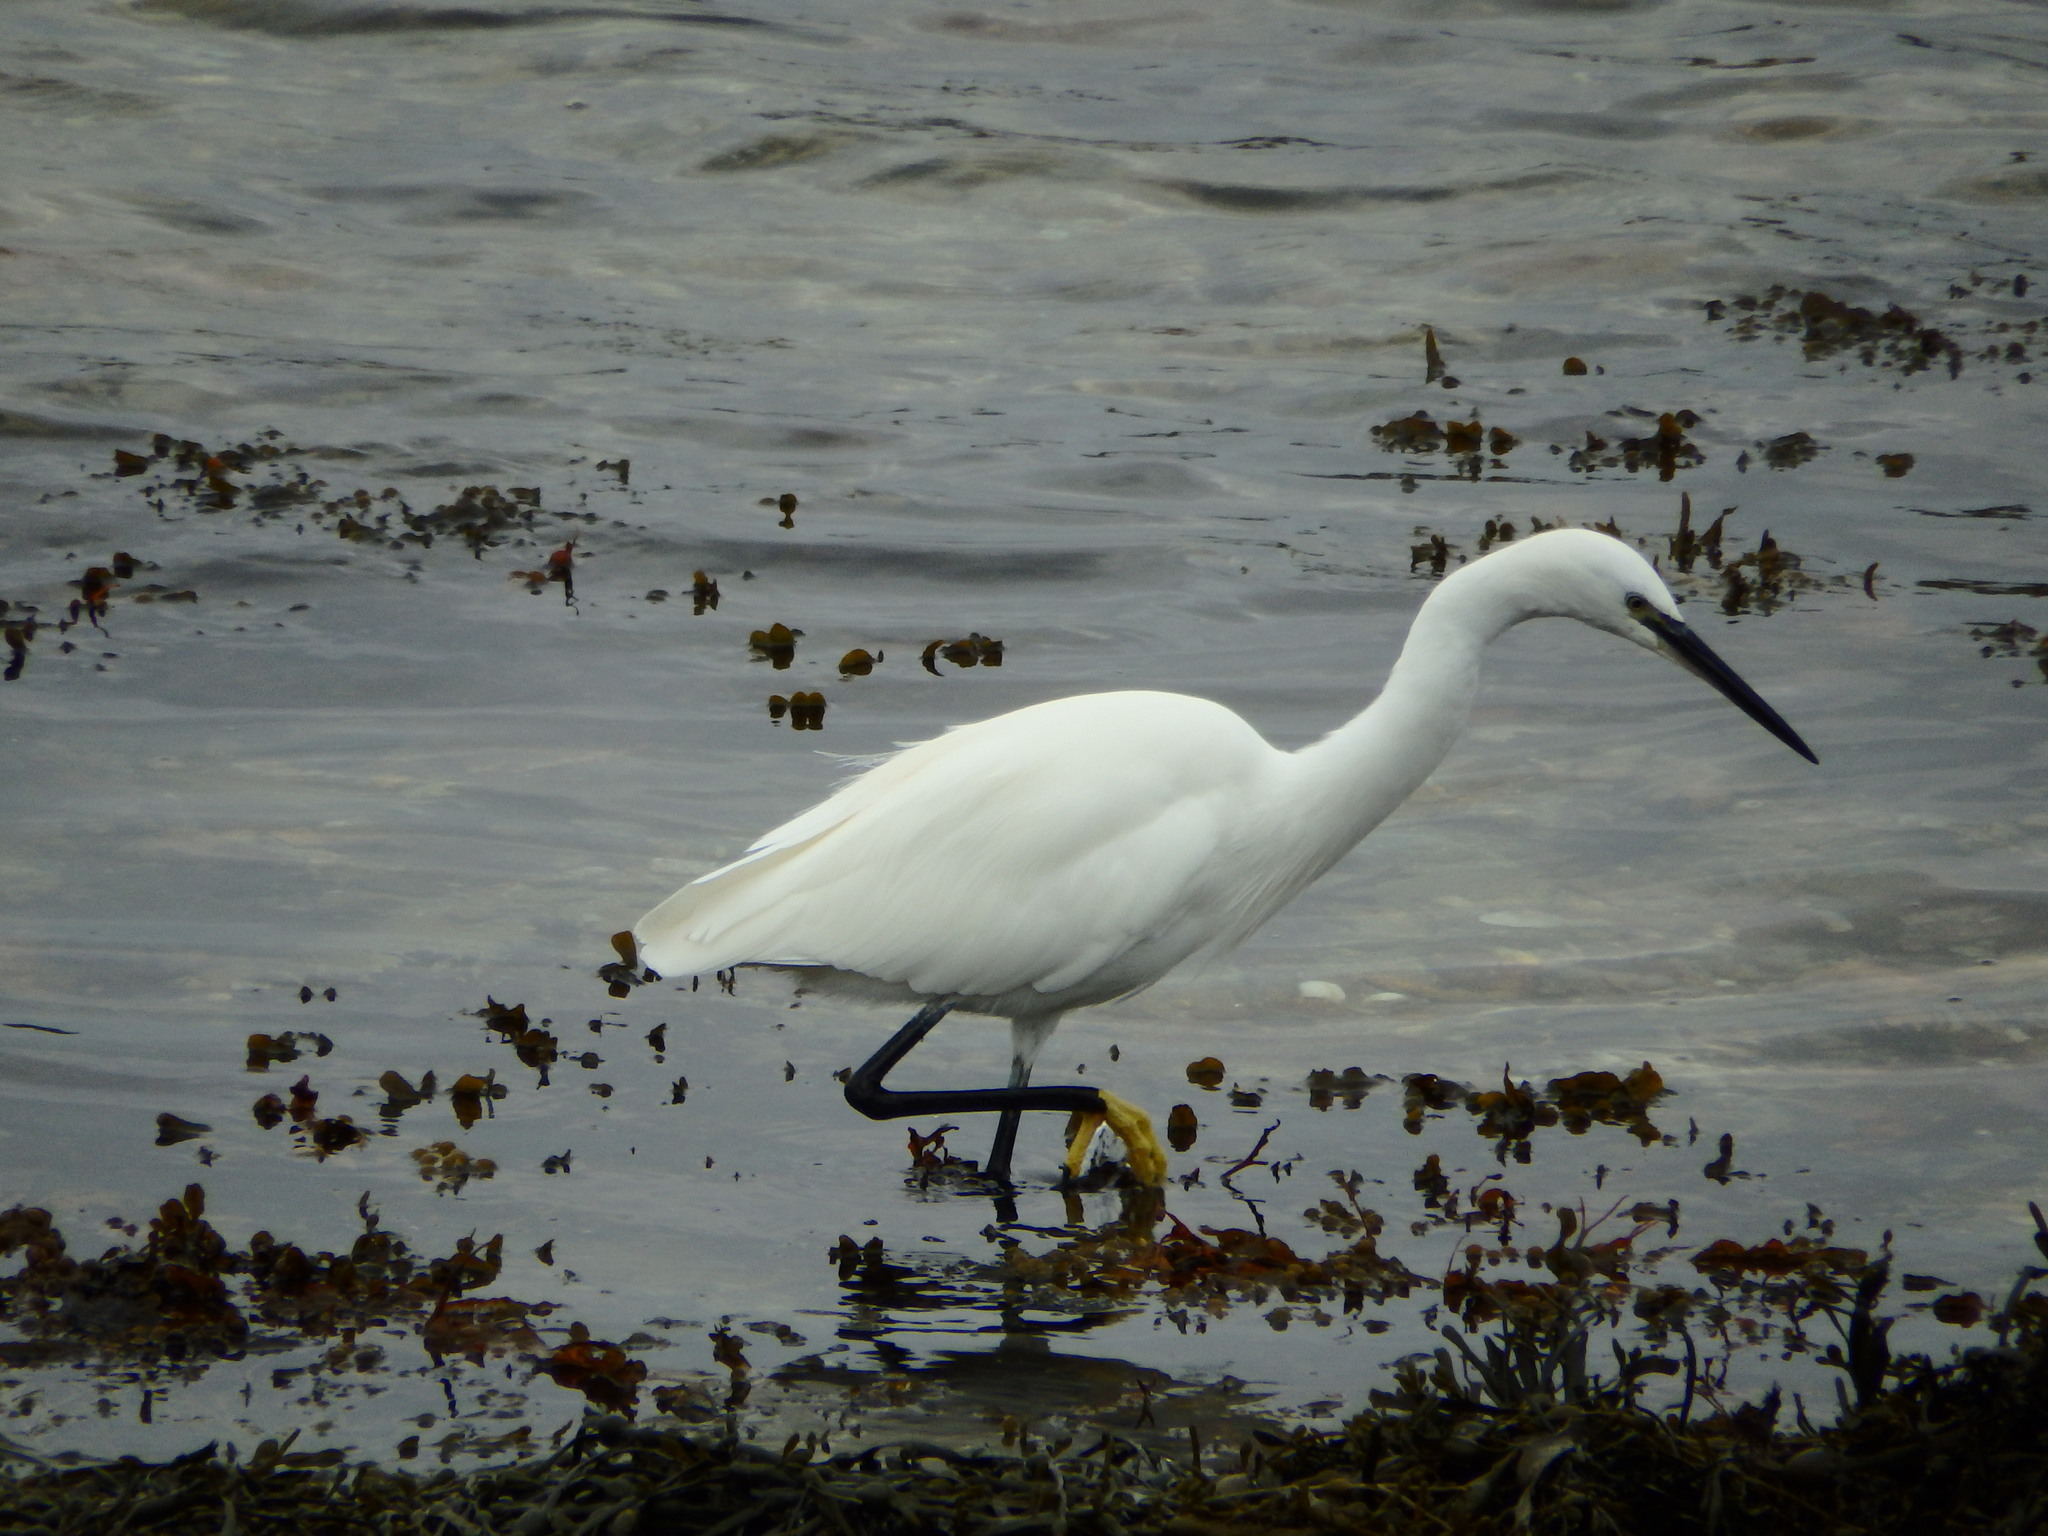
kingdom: Animalia
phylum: Chordata
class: Aves
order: Pelecaniformes
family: Ardeidae
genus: Egretta
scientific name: Egretta garzetta
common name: Little egret
